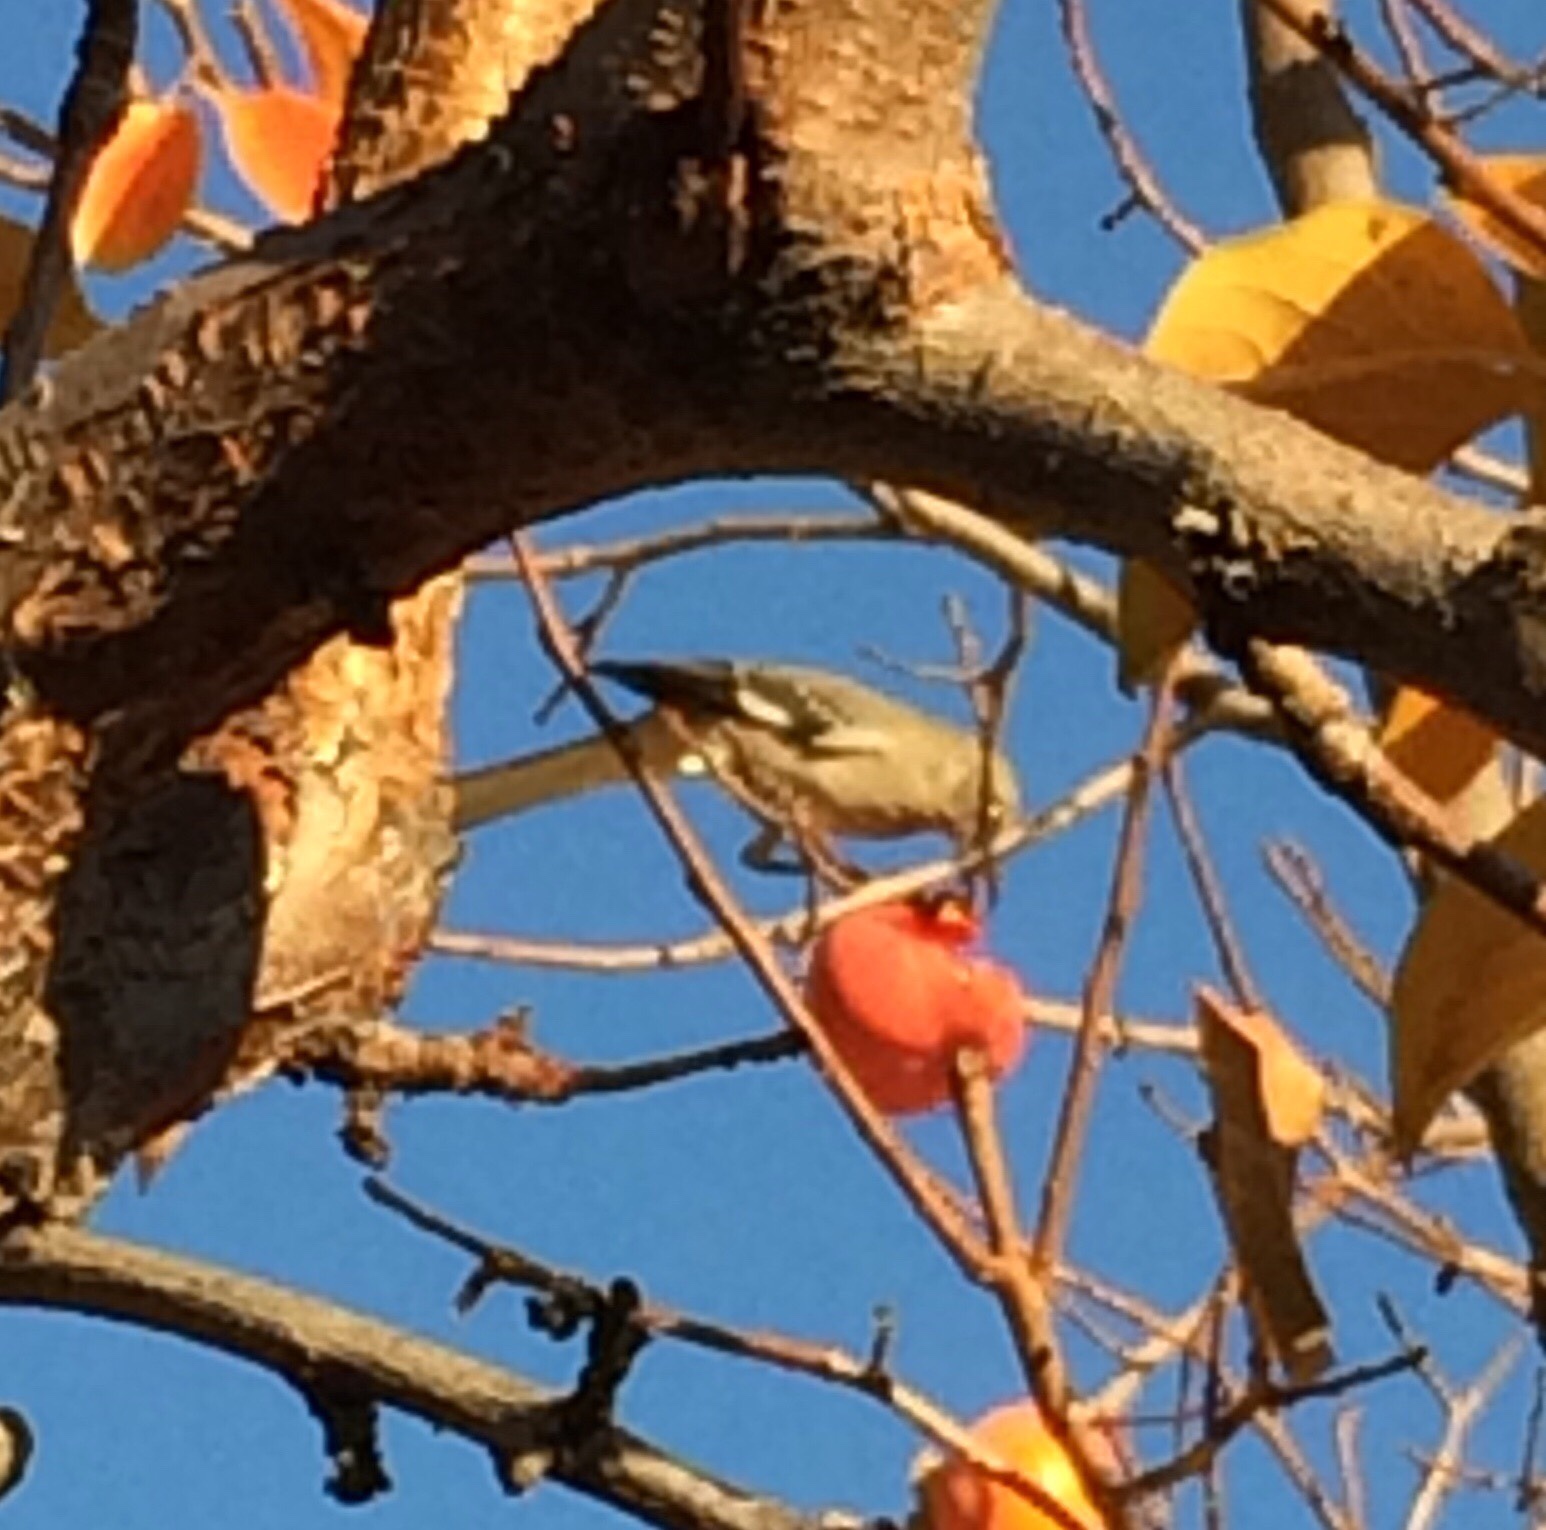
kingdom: Animalia
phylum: Chordata
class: Aves
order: Passeriformes
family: Mimidae
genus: Mimus
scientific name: Mimus polyglottos
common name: Northern mockingbird
